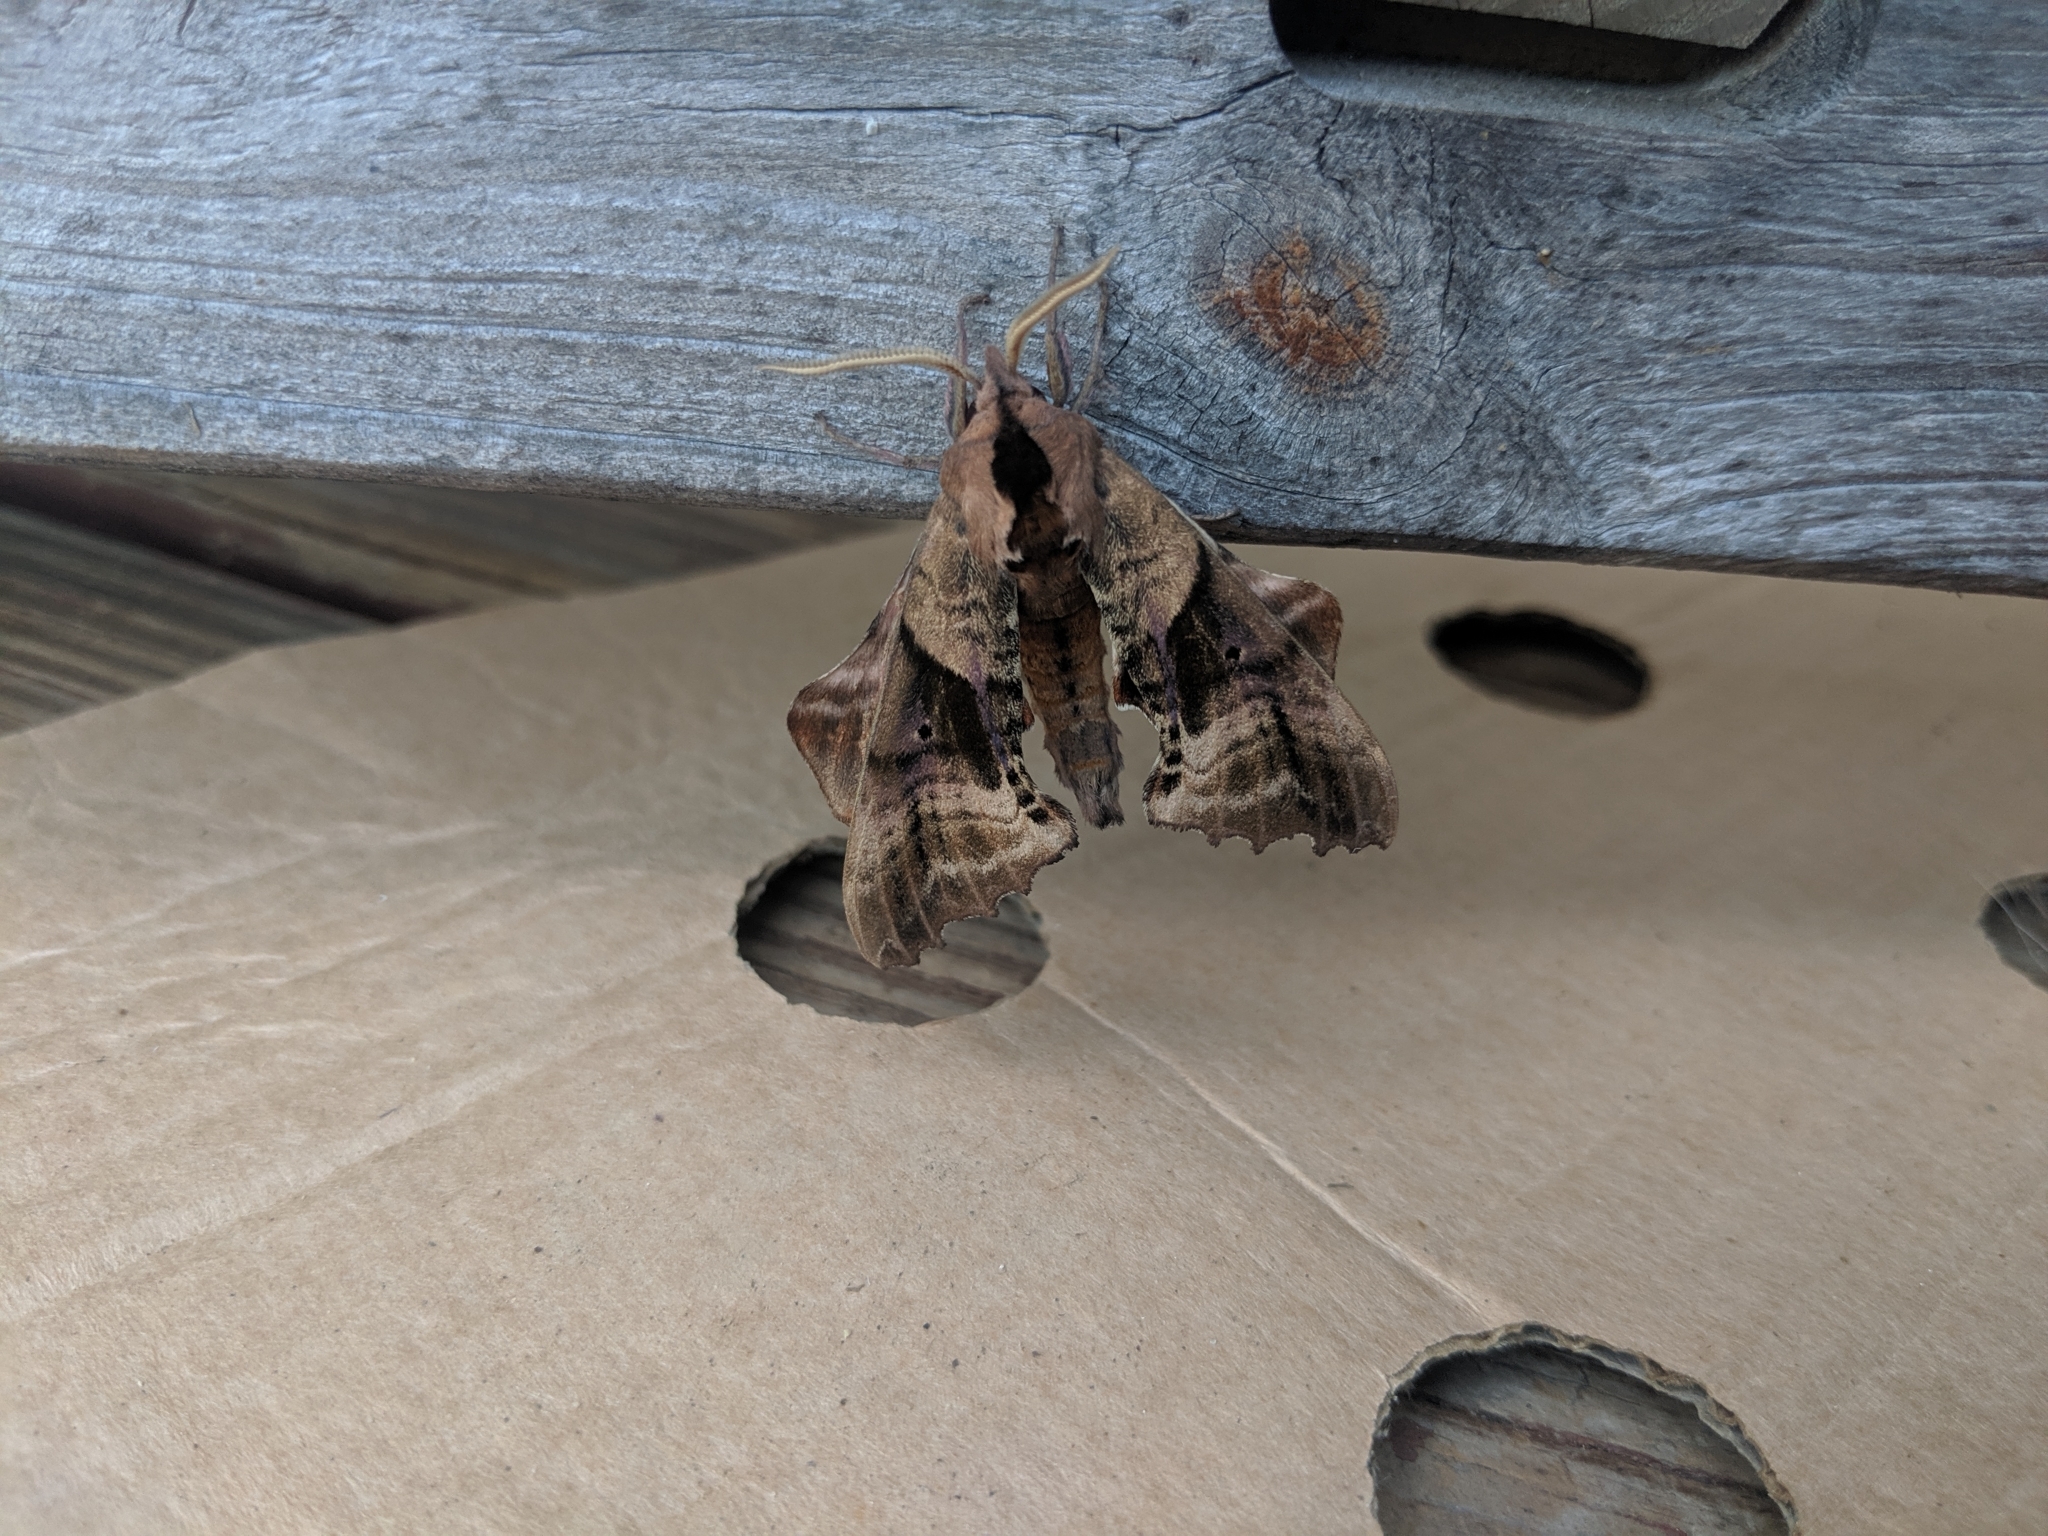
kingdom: Animalia
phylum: Arthropoda
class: Insecta
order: Lepidoptera
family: Sphingidae
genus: Paonias
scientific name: Paonias excaecata
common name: Blind-eyed sphinx
